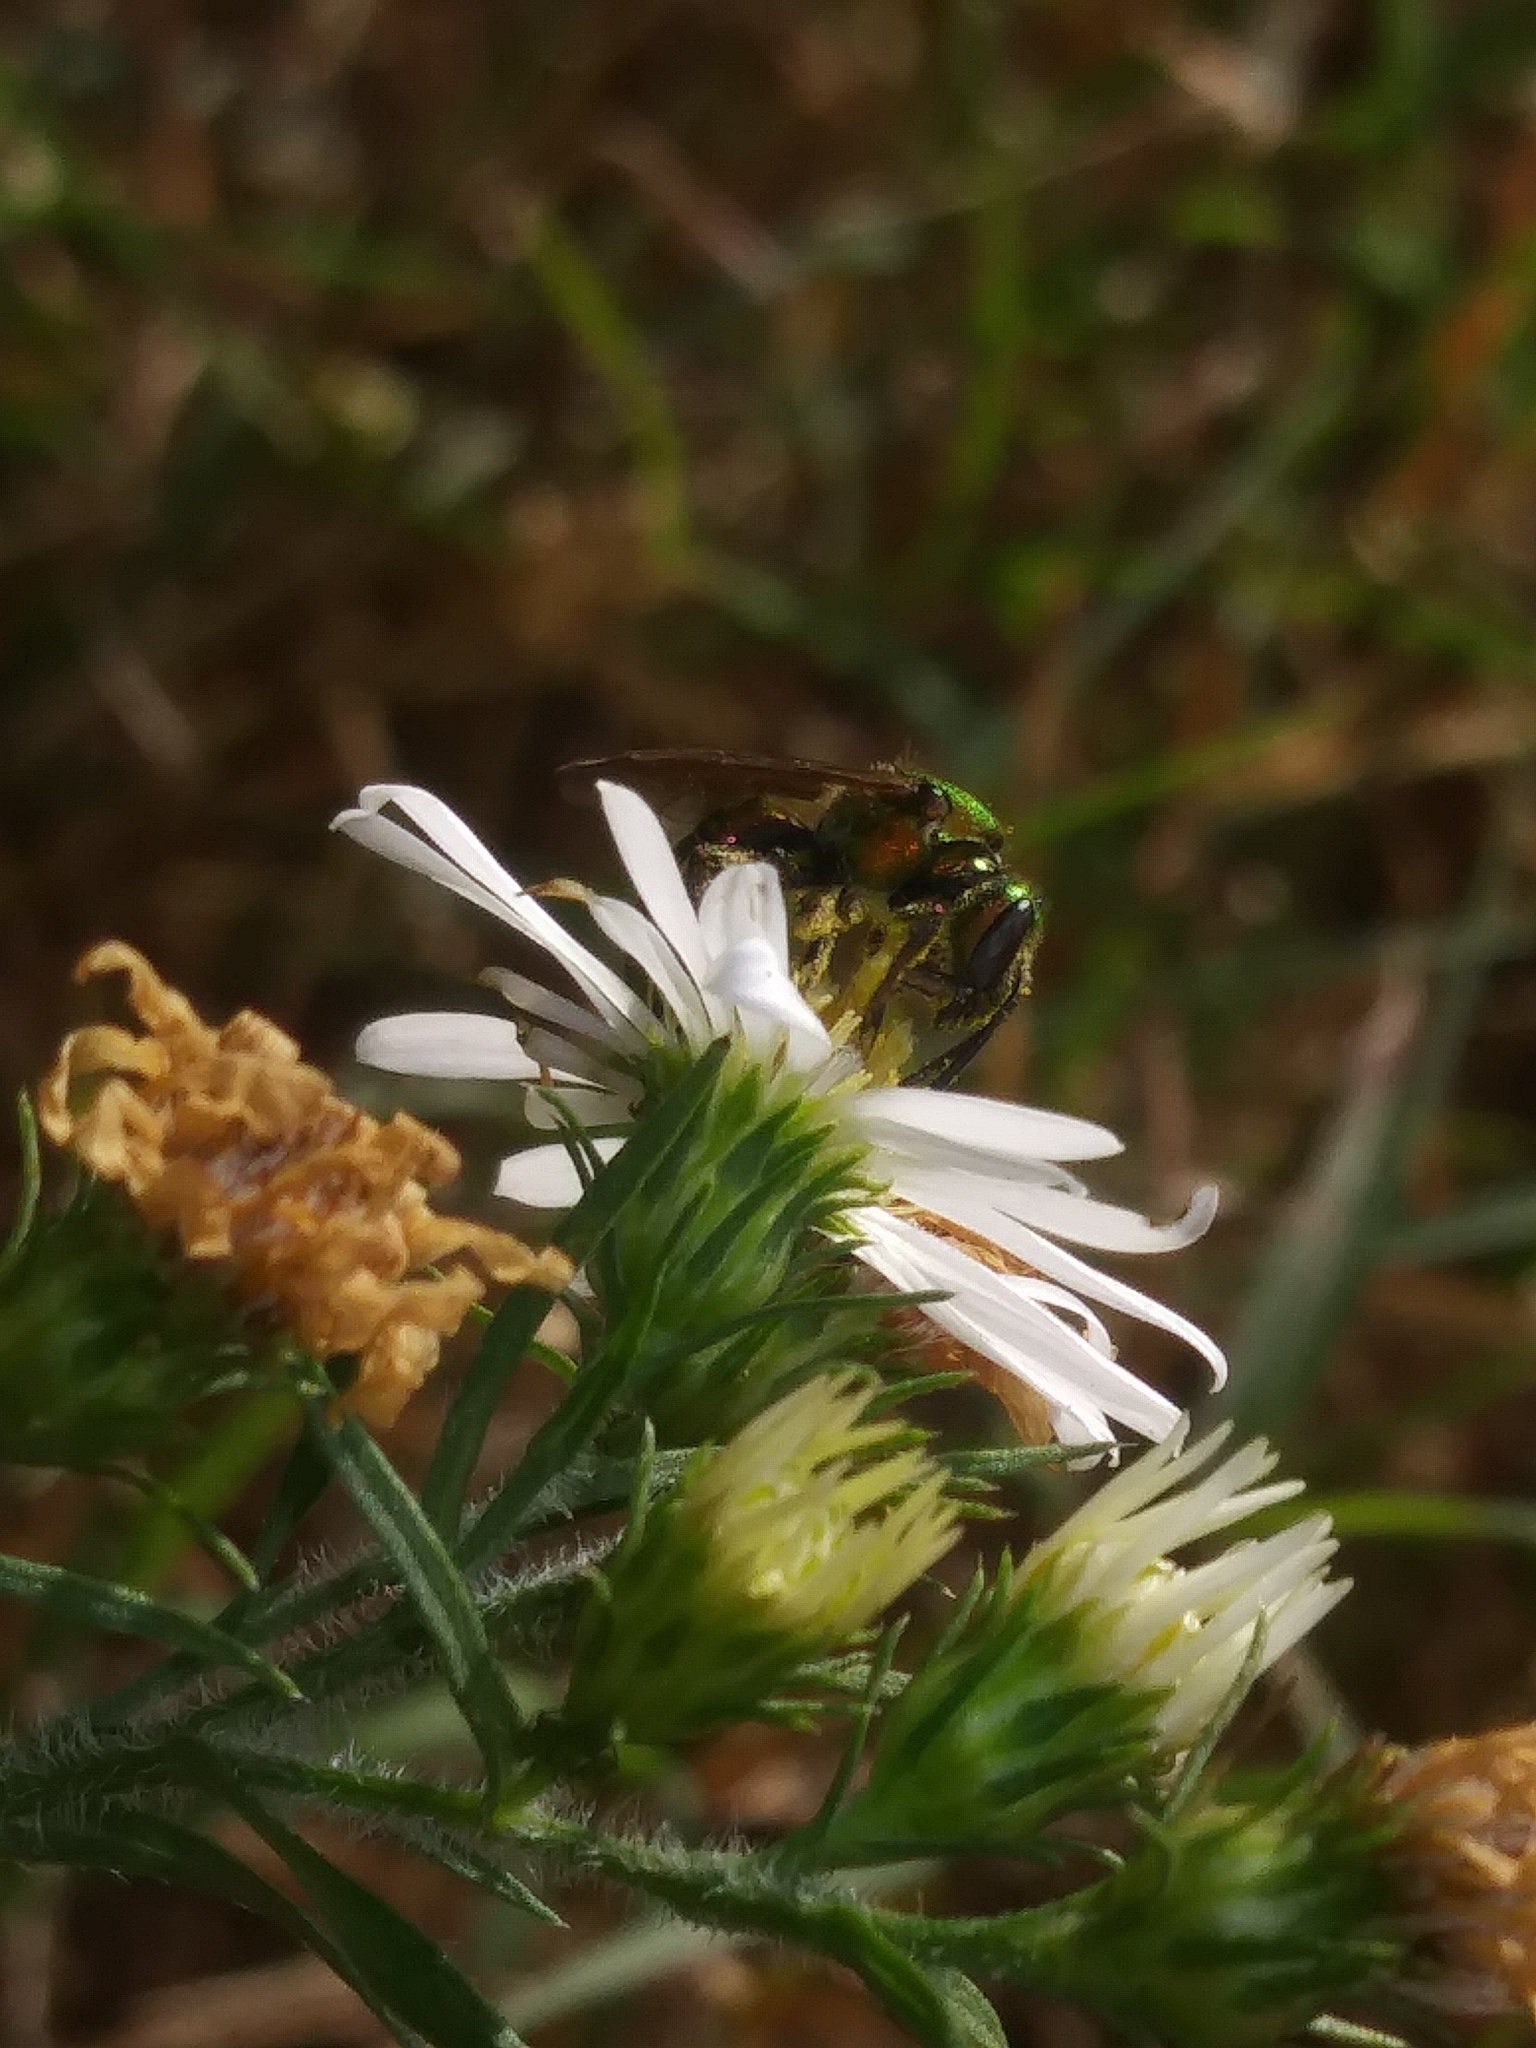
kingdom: Animalia
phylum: Arthropoda
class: Insecta
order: Hymenoptera
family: Halictidae
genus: Augochlora
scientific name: Augochlora pura
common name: Pure green sweat bee
